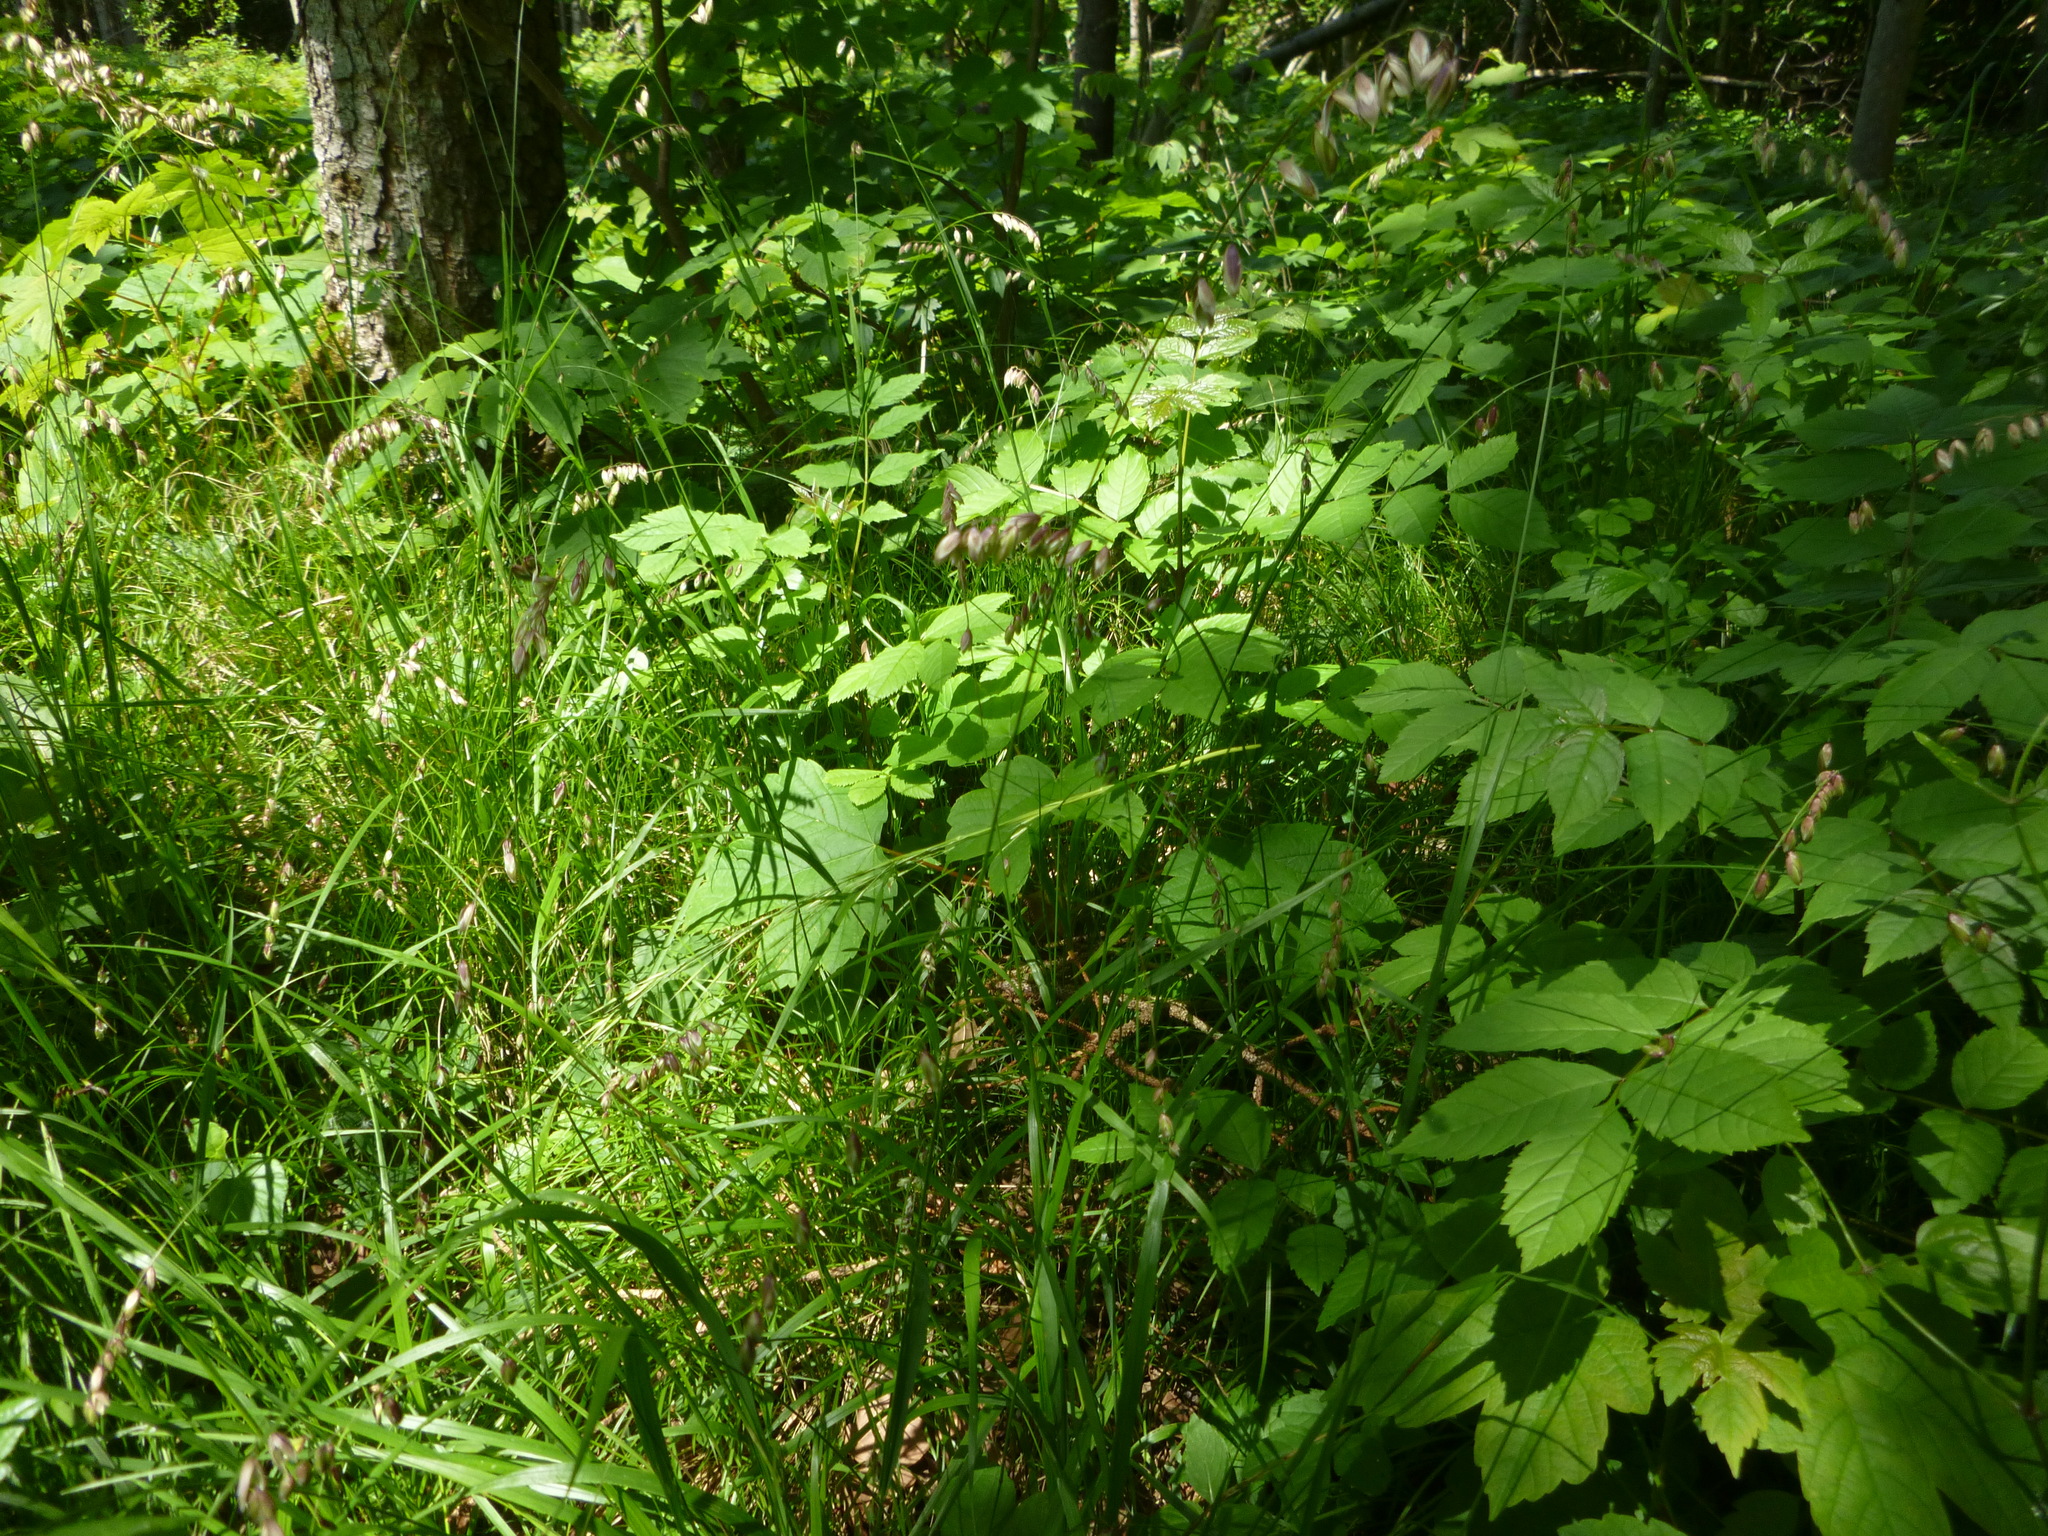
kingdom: Plantae
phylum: Tracheophyta
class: Liliopsida
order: Poales
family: Poaceae
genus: Melica
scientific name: Melica nutans
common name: Mountain melick
